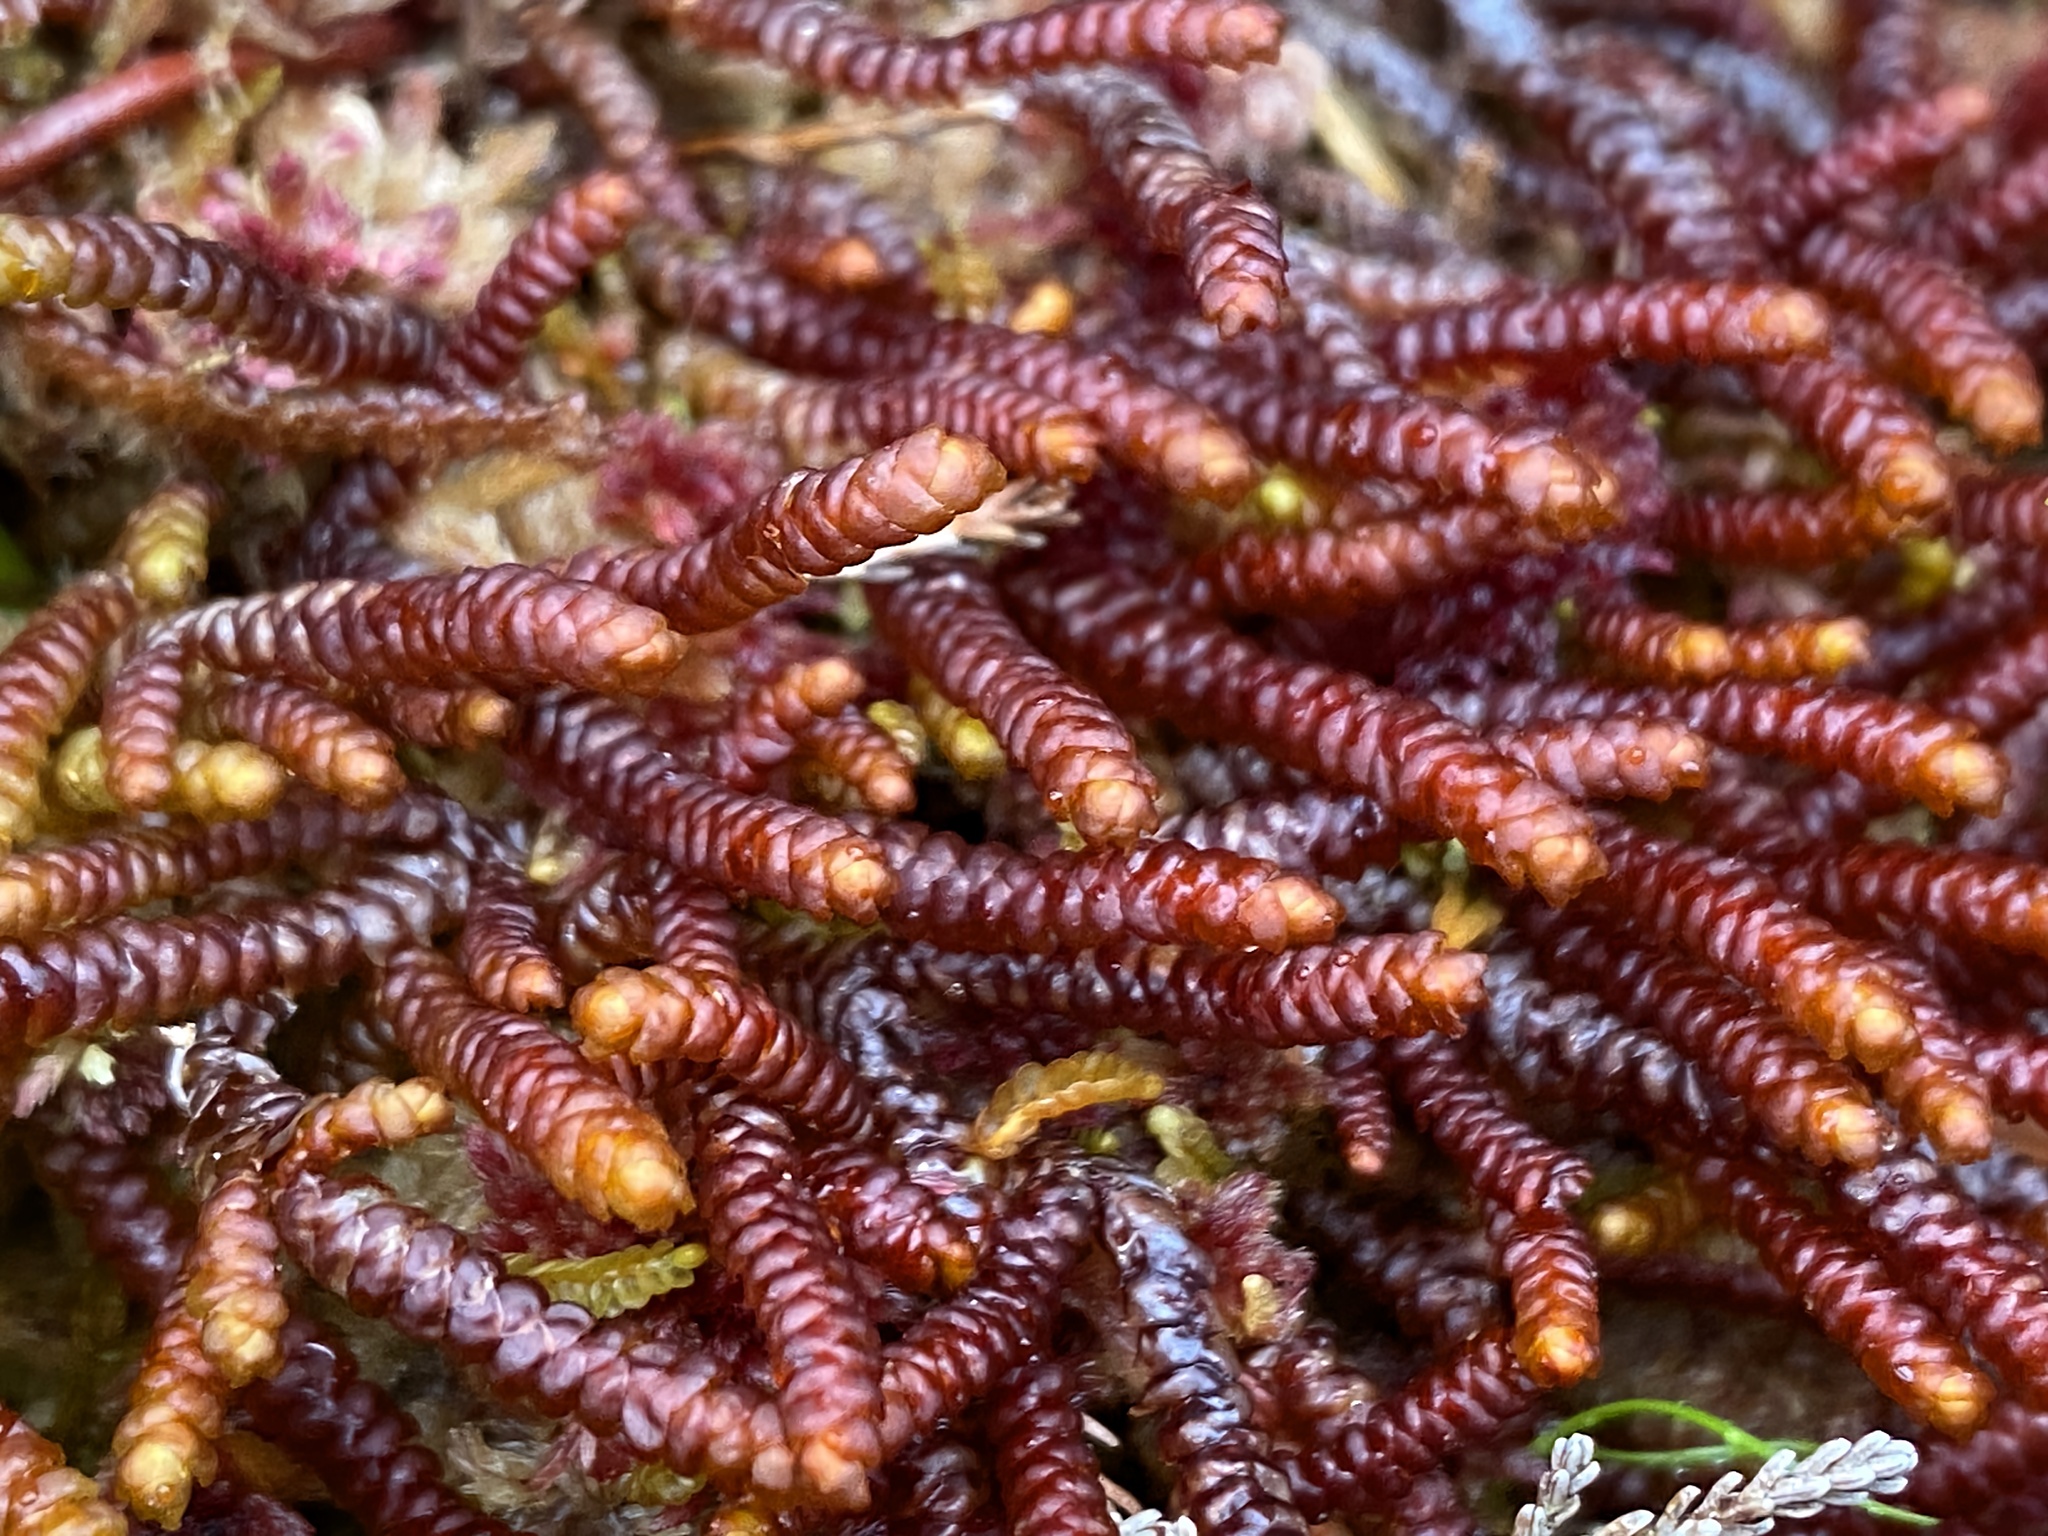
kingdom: Plantae
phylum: Marchantiophyta
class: Jungermanniopsida
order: Pleuroziales
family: Pleuroziaceae
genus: Pleurozia
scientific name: Pleurozia purpurea
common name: Purple spoonwort
